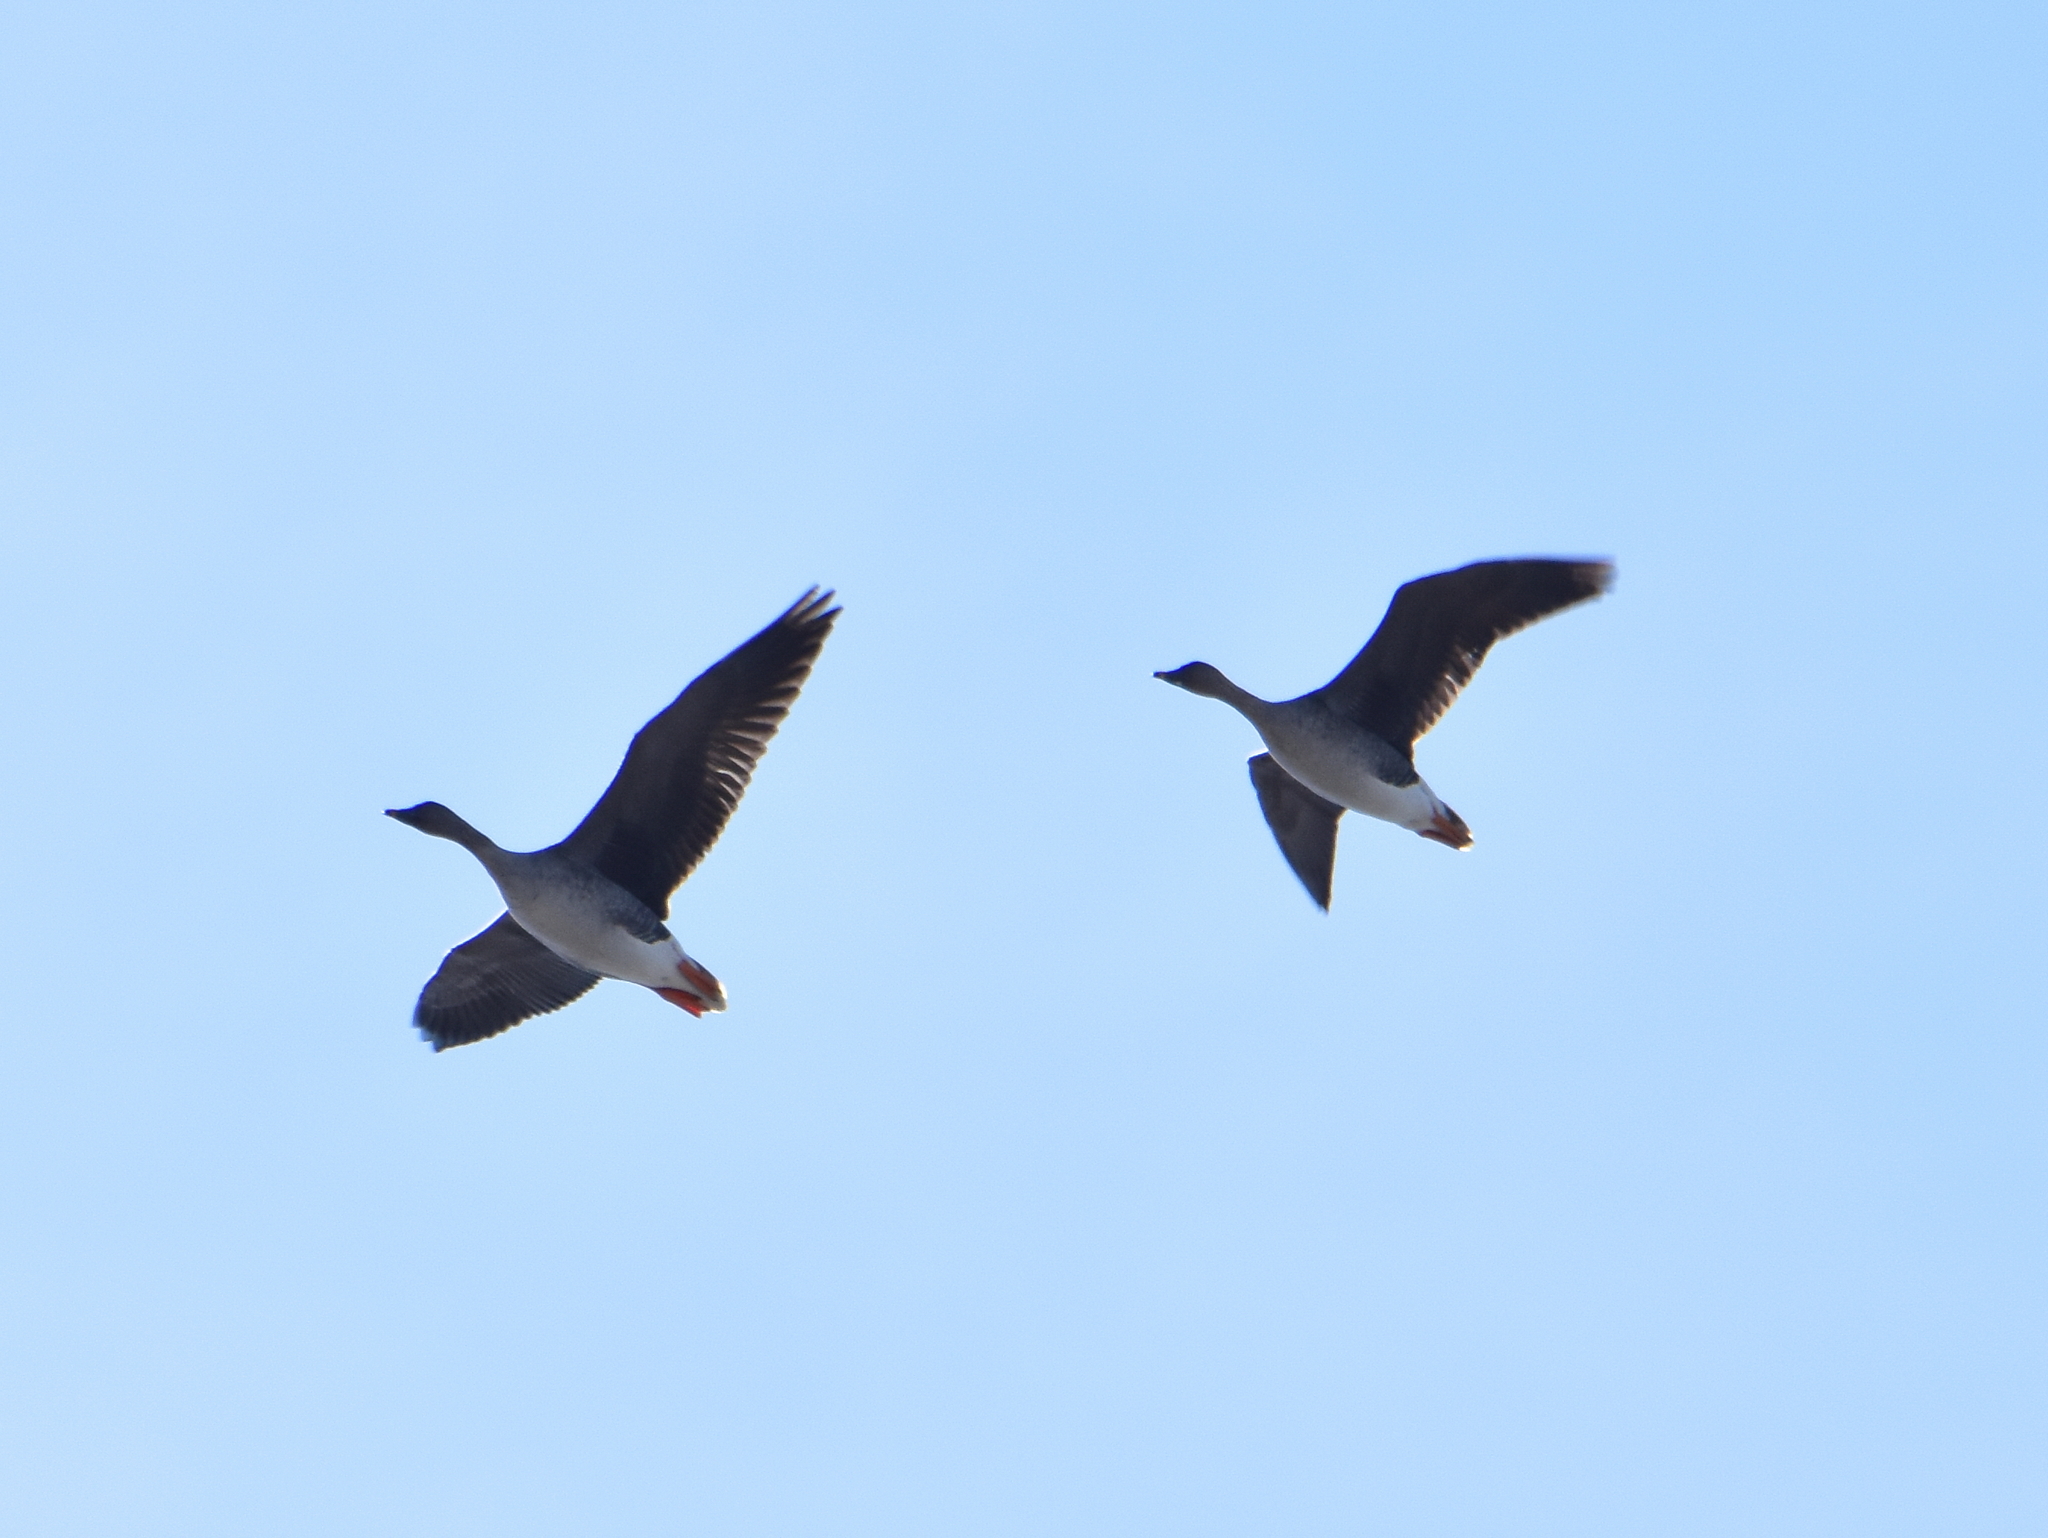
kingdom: Animalia
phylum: Chordata
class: Aves
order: Anseriformes
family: Anatidae
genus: Anser
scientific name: Anser fabalis
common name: Bean goose
